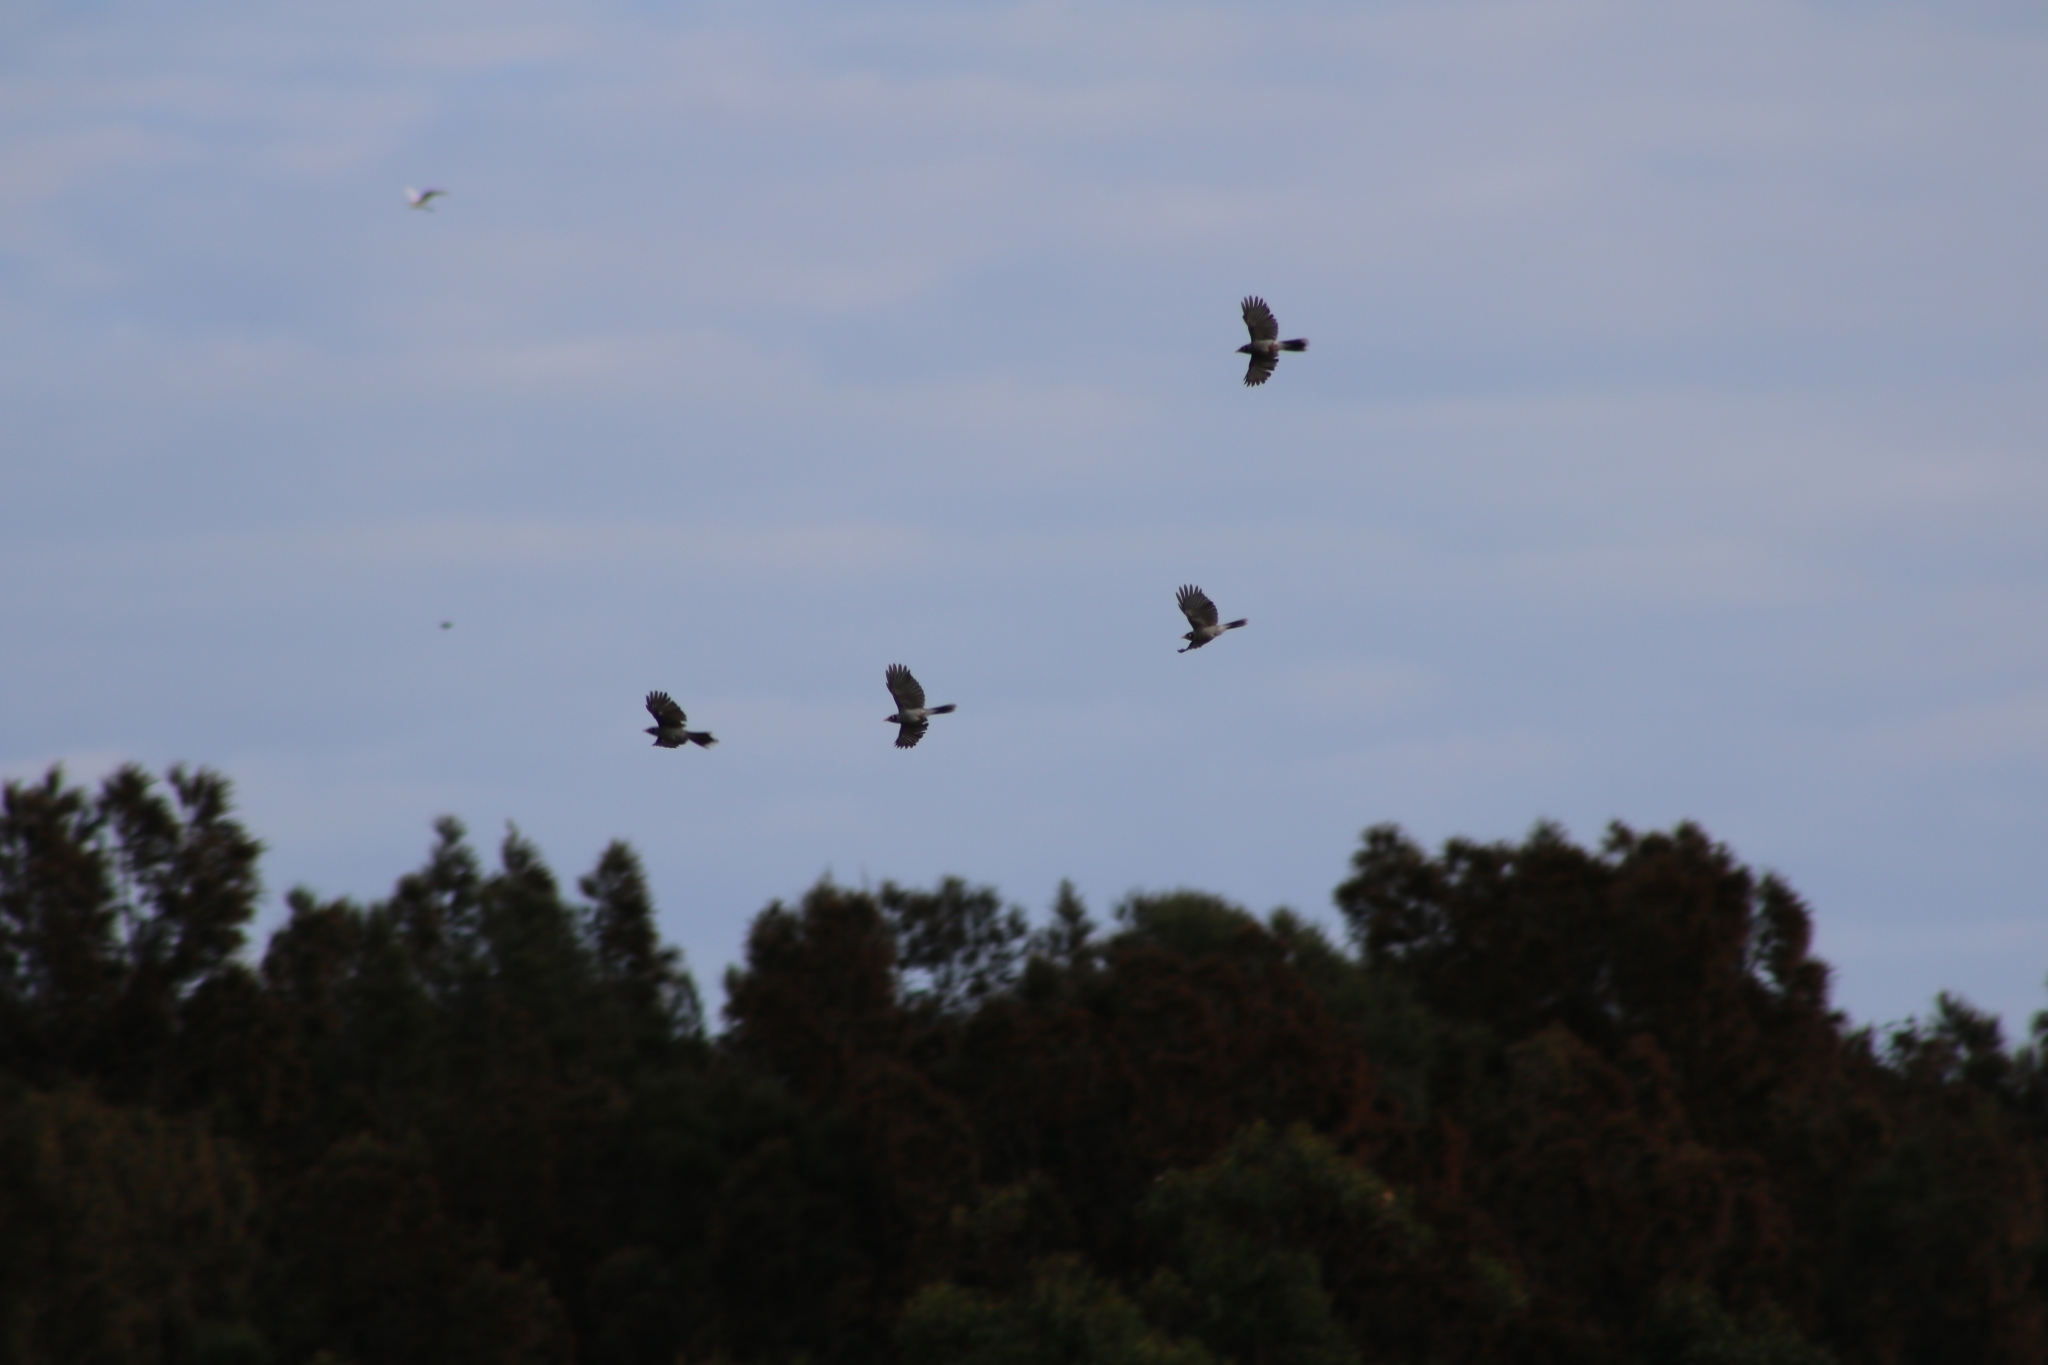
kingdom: Animalia
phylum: Chordata
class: Aves
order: Passeriformes
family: Meliphagidae
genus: Manorina
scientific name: Manorina melanocephala
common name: Noisy miner
